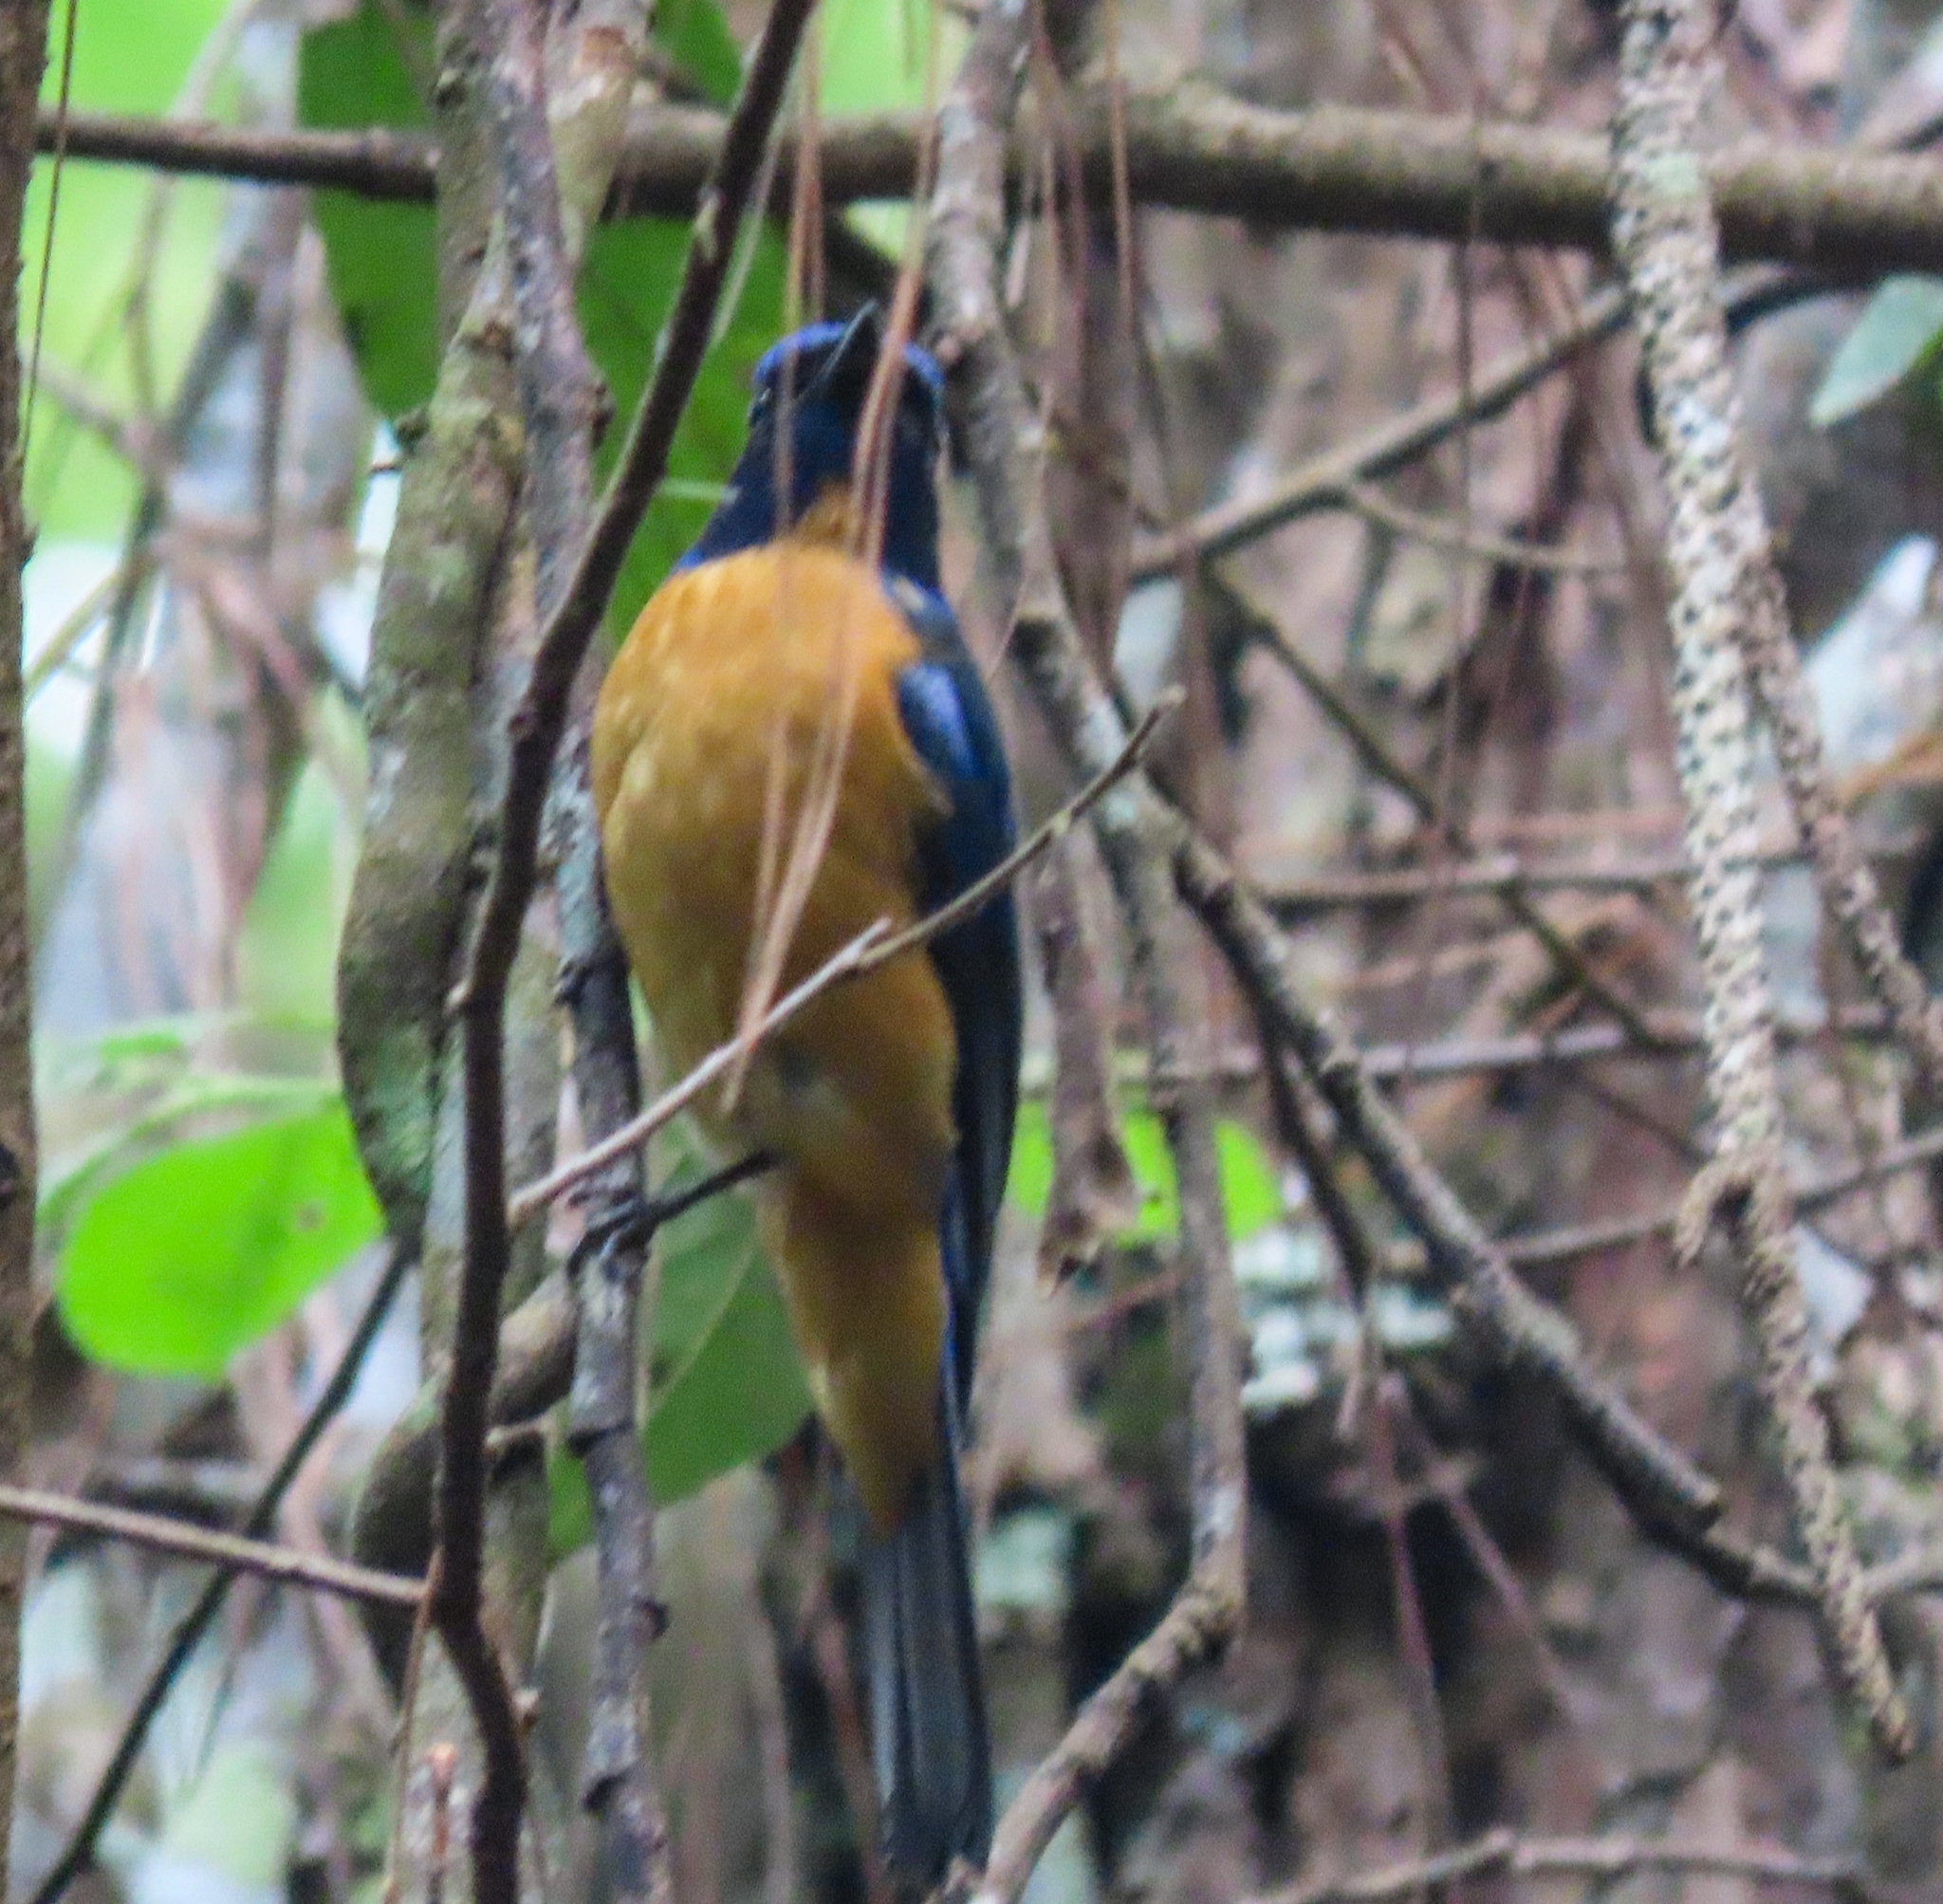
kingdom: Animalia
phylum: Chordata
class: Aves
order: Passeriformes
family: Muscicapidae
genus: Niltava
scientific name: Niltava oatesi
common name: Chinese vivid niltava
